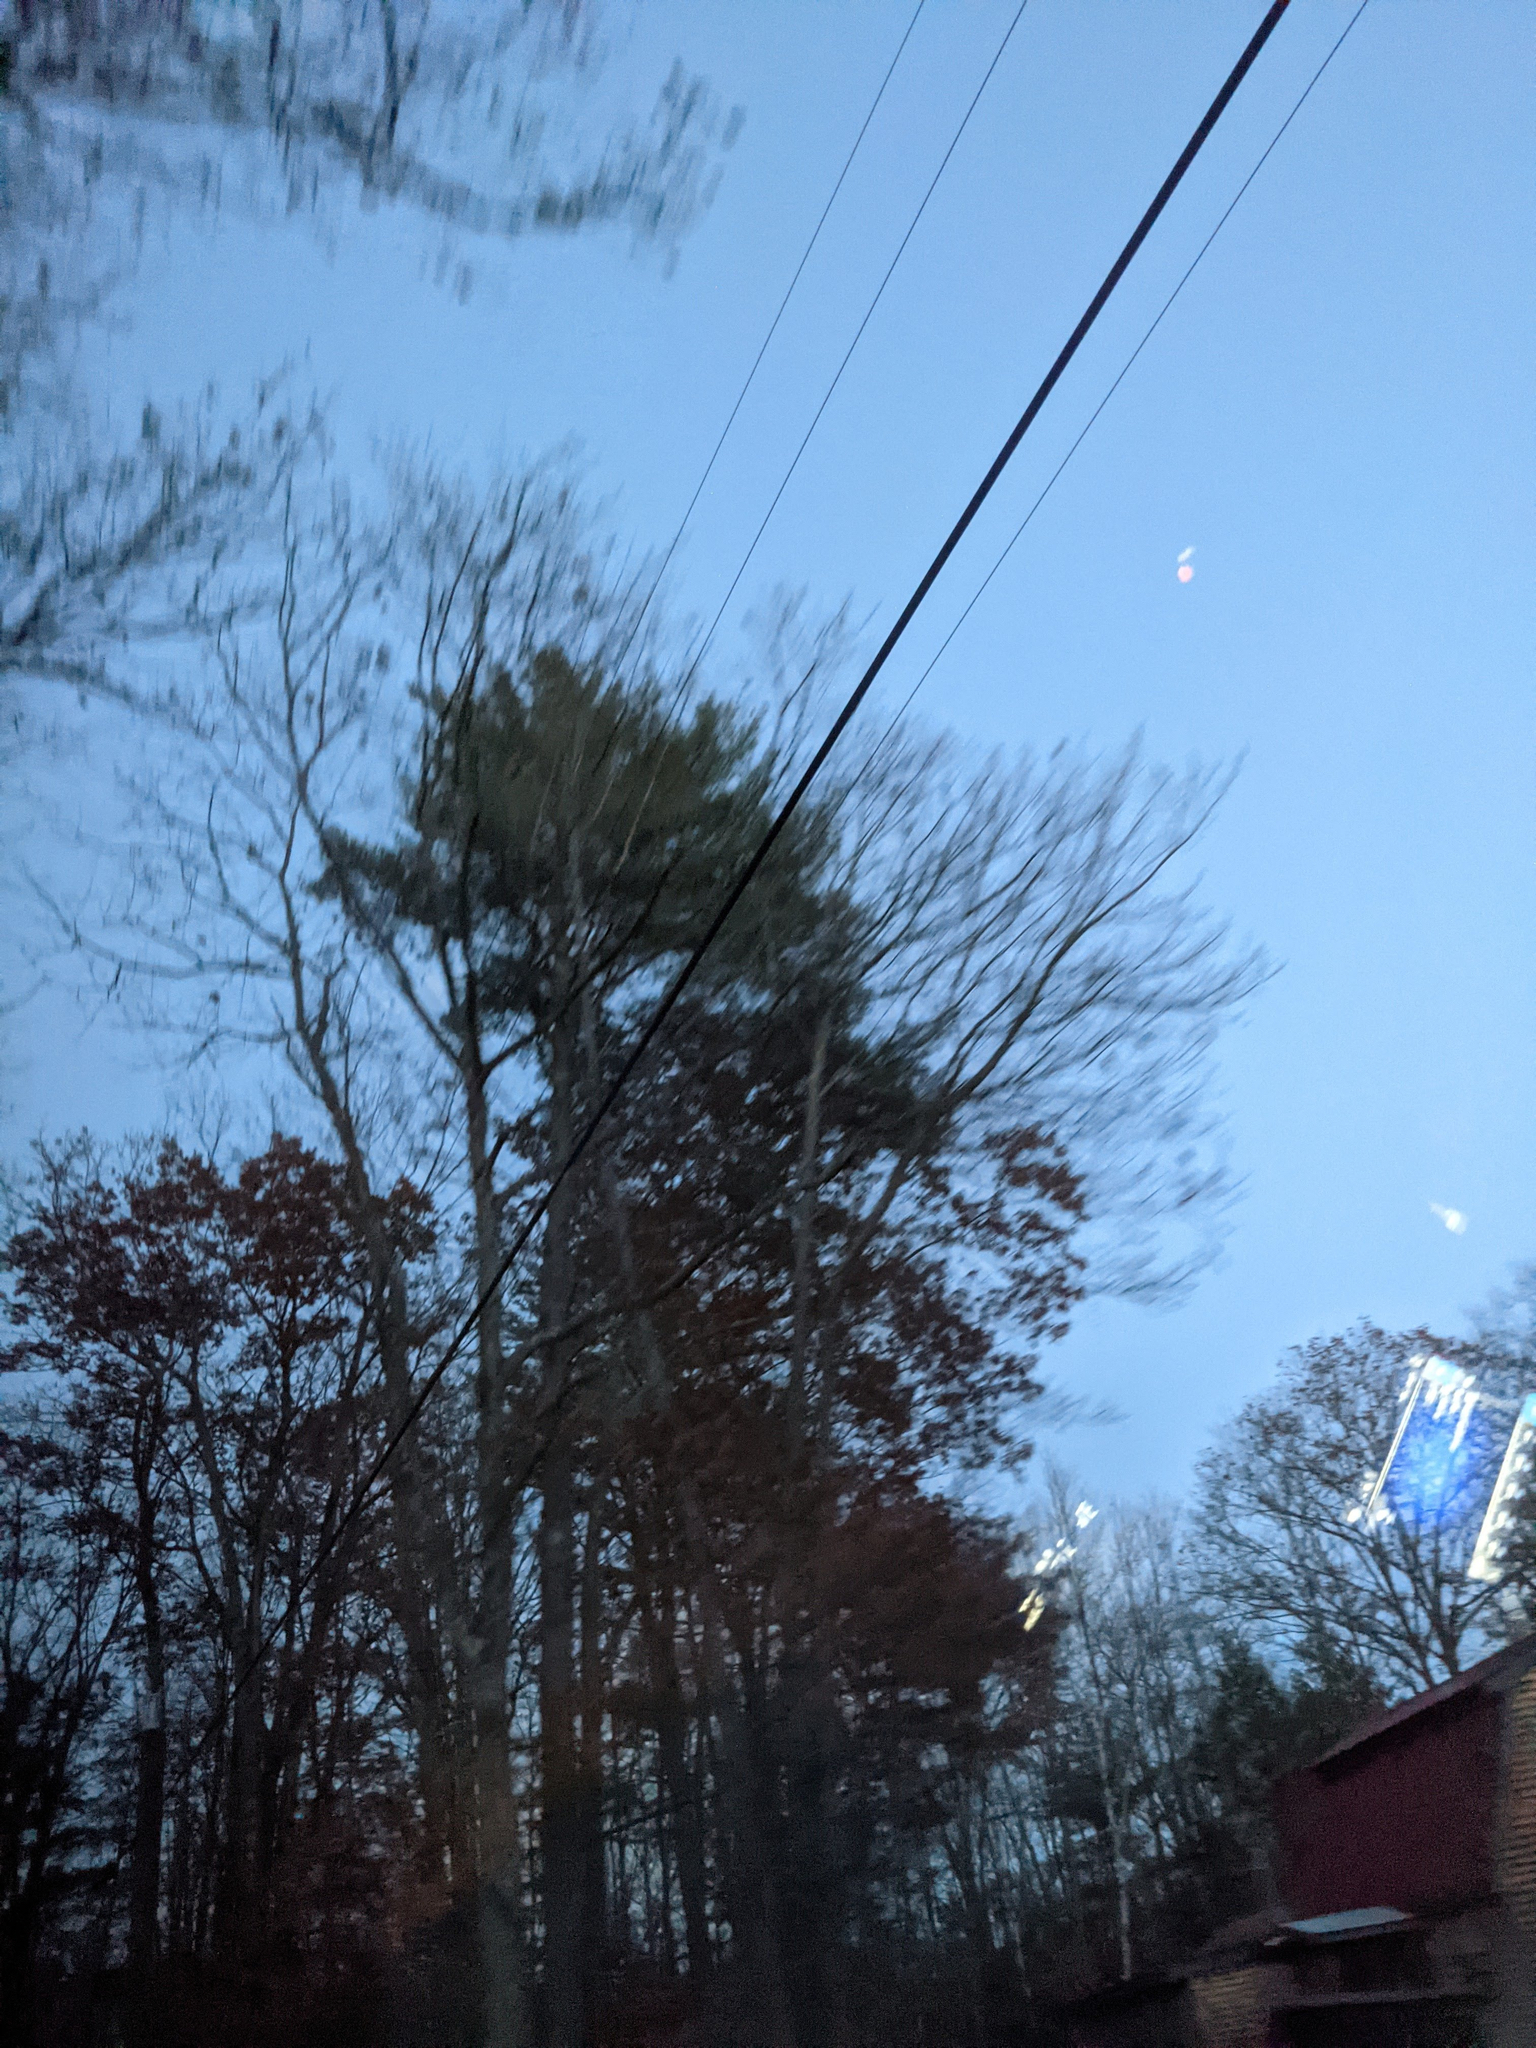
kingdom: Plantae
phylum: Tracheophyta
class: Pinopsida
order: Pinales
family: Pinaceae
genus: Pinus
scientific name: Pinus strobus
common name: Weymouth pine
